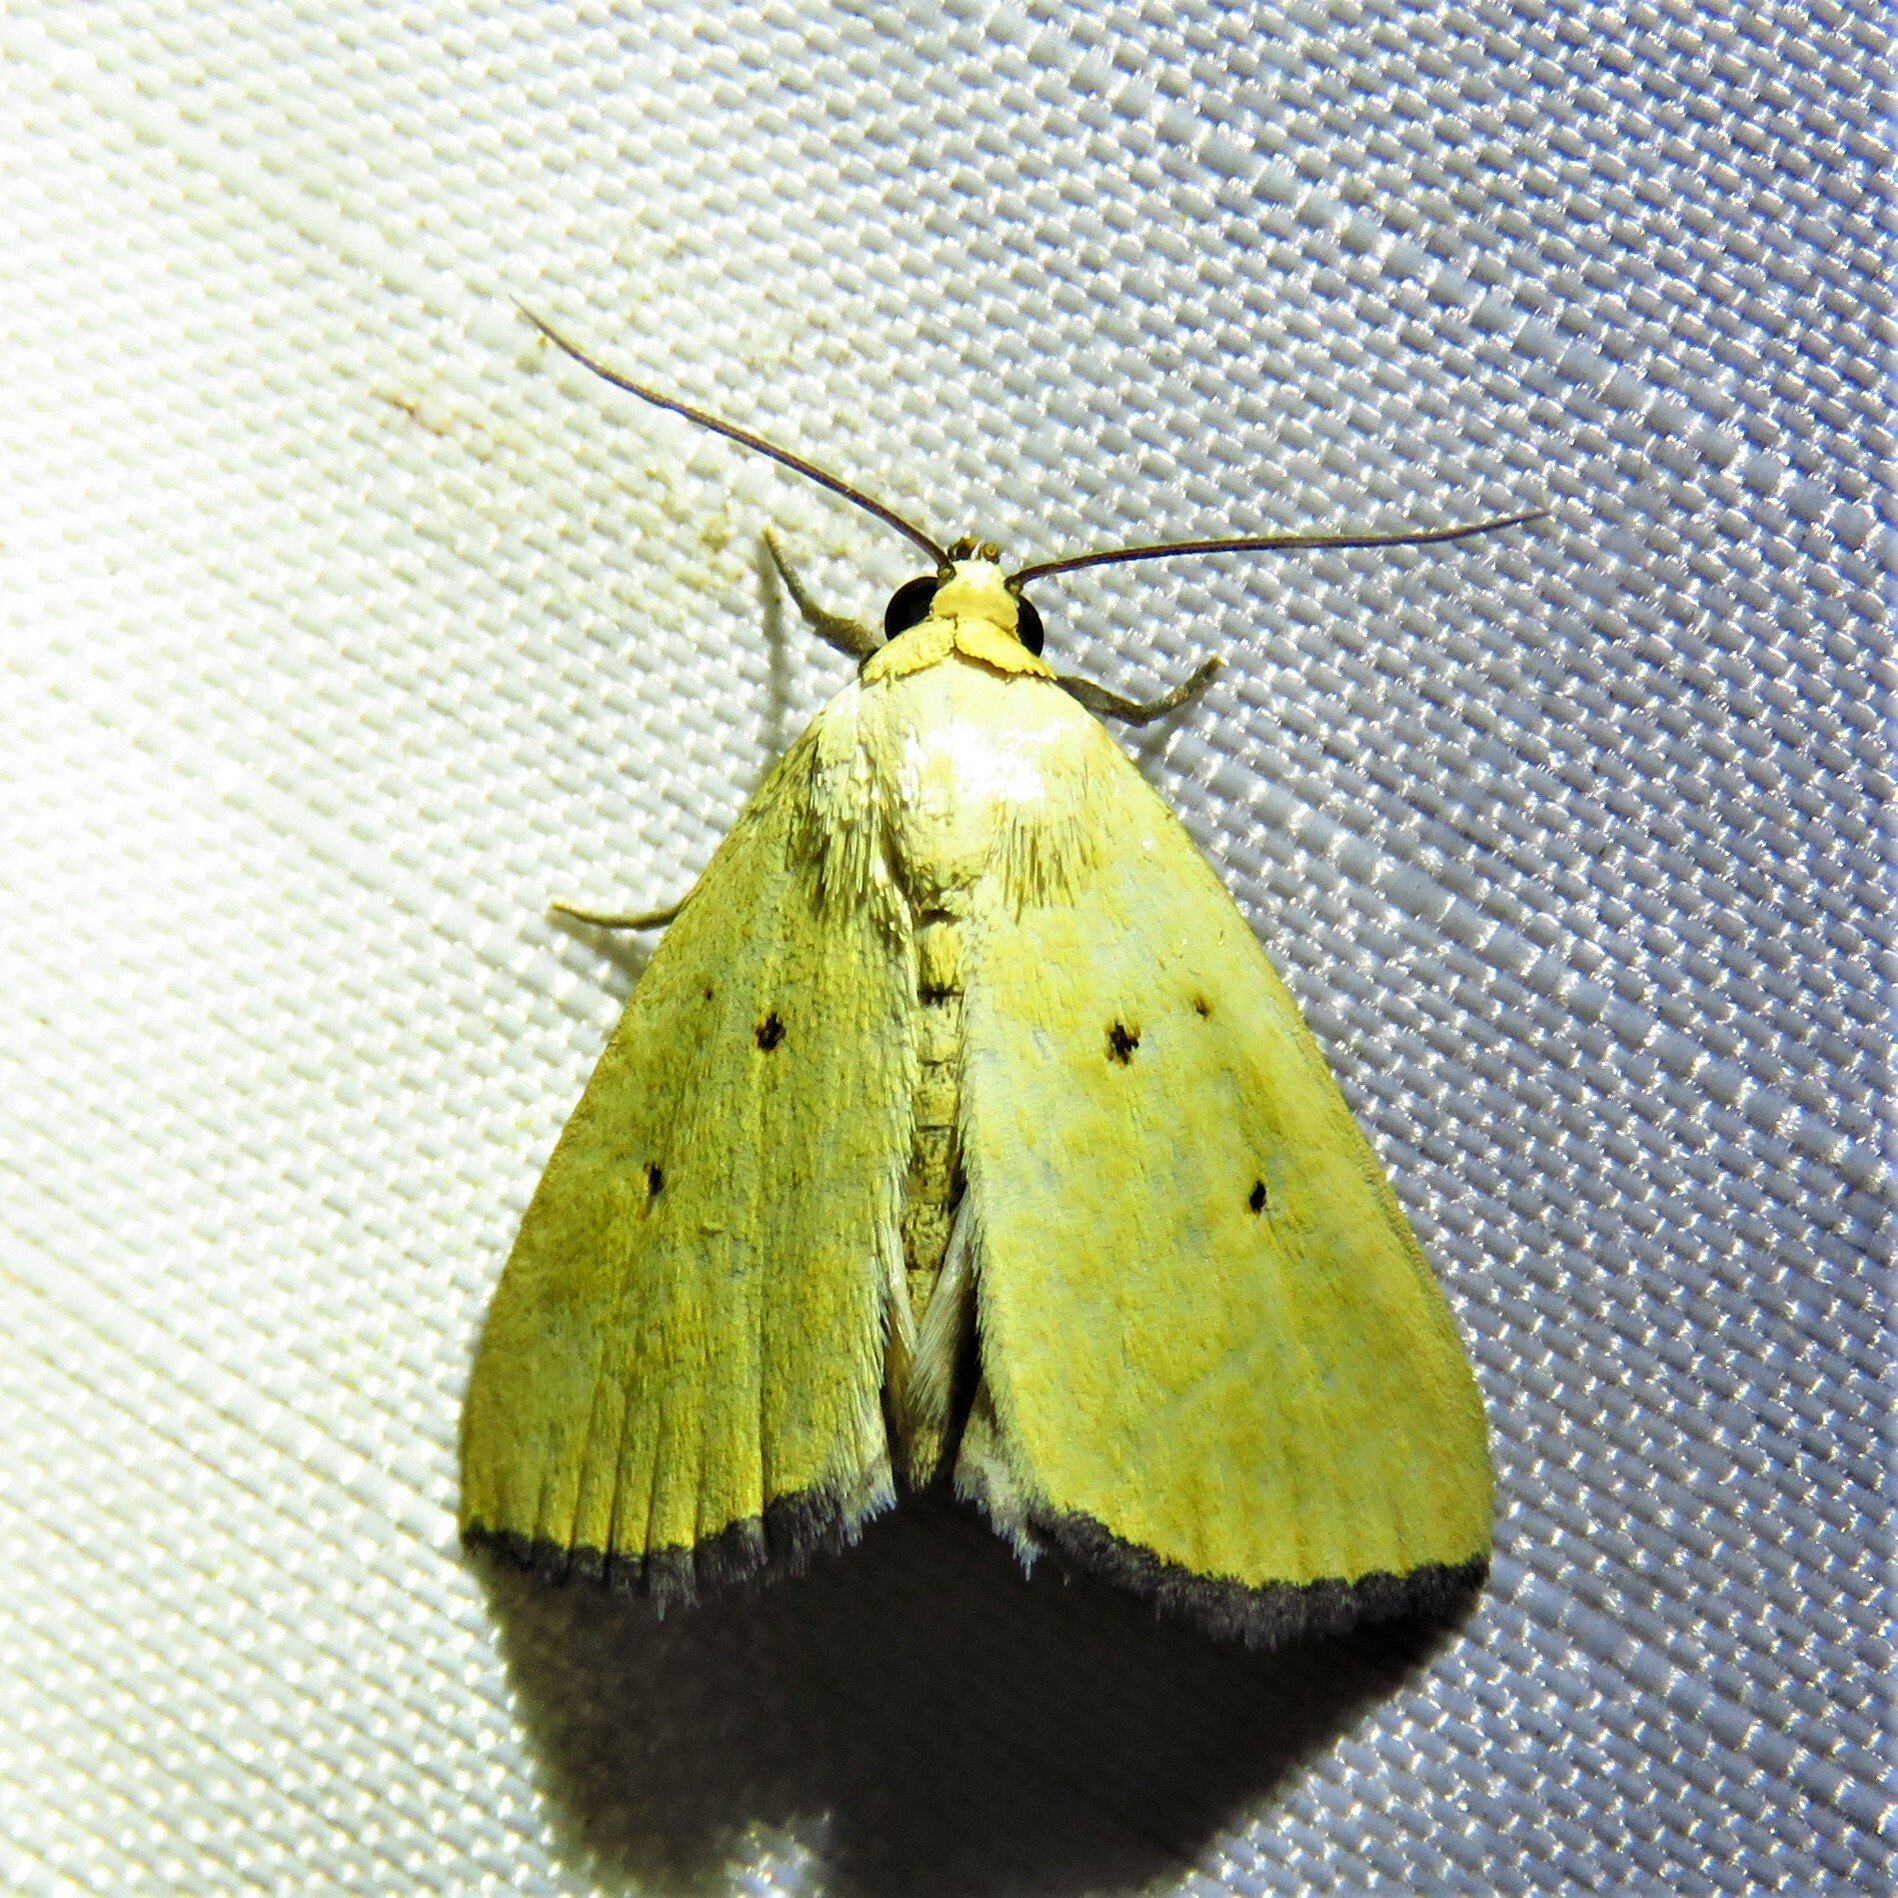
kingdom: Animalia
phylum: Arthropoda
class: Insecta
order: Lepidoptera
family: Noctuidae
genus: Marimatha
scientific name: Marimatha nigrofimbria
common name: Black-bordered lemon moth
